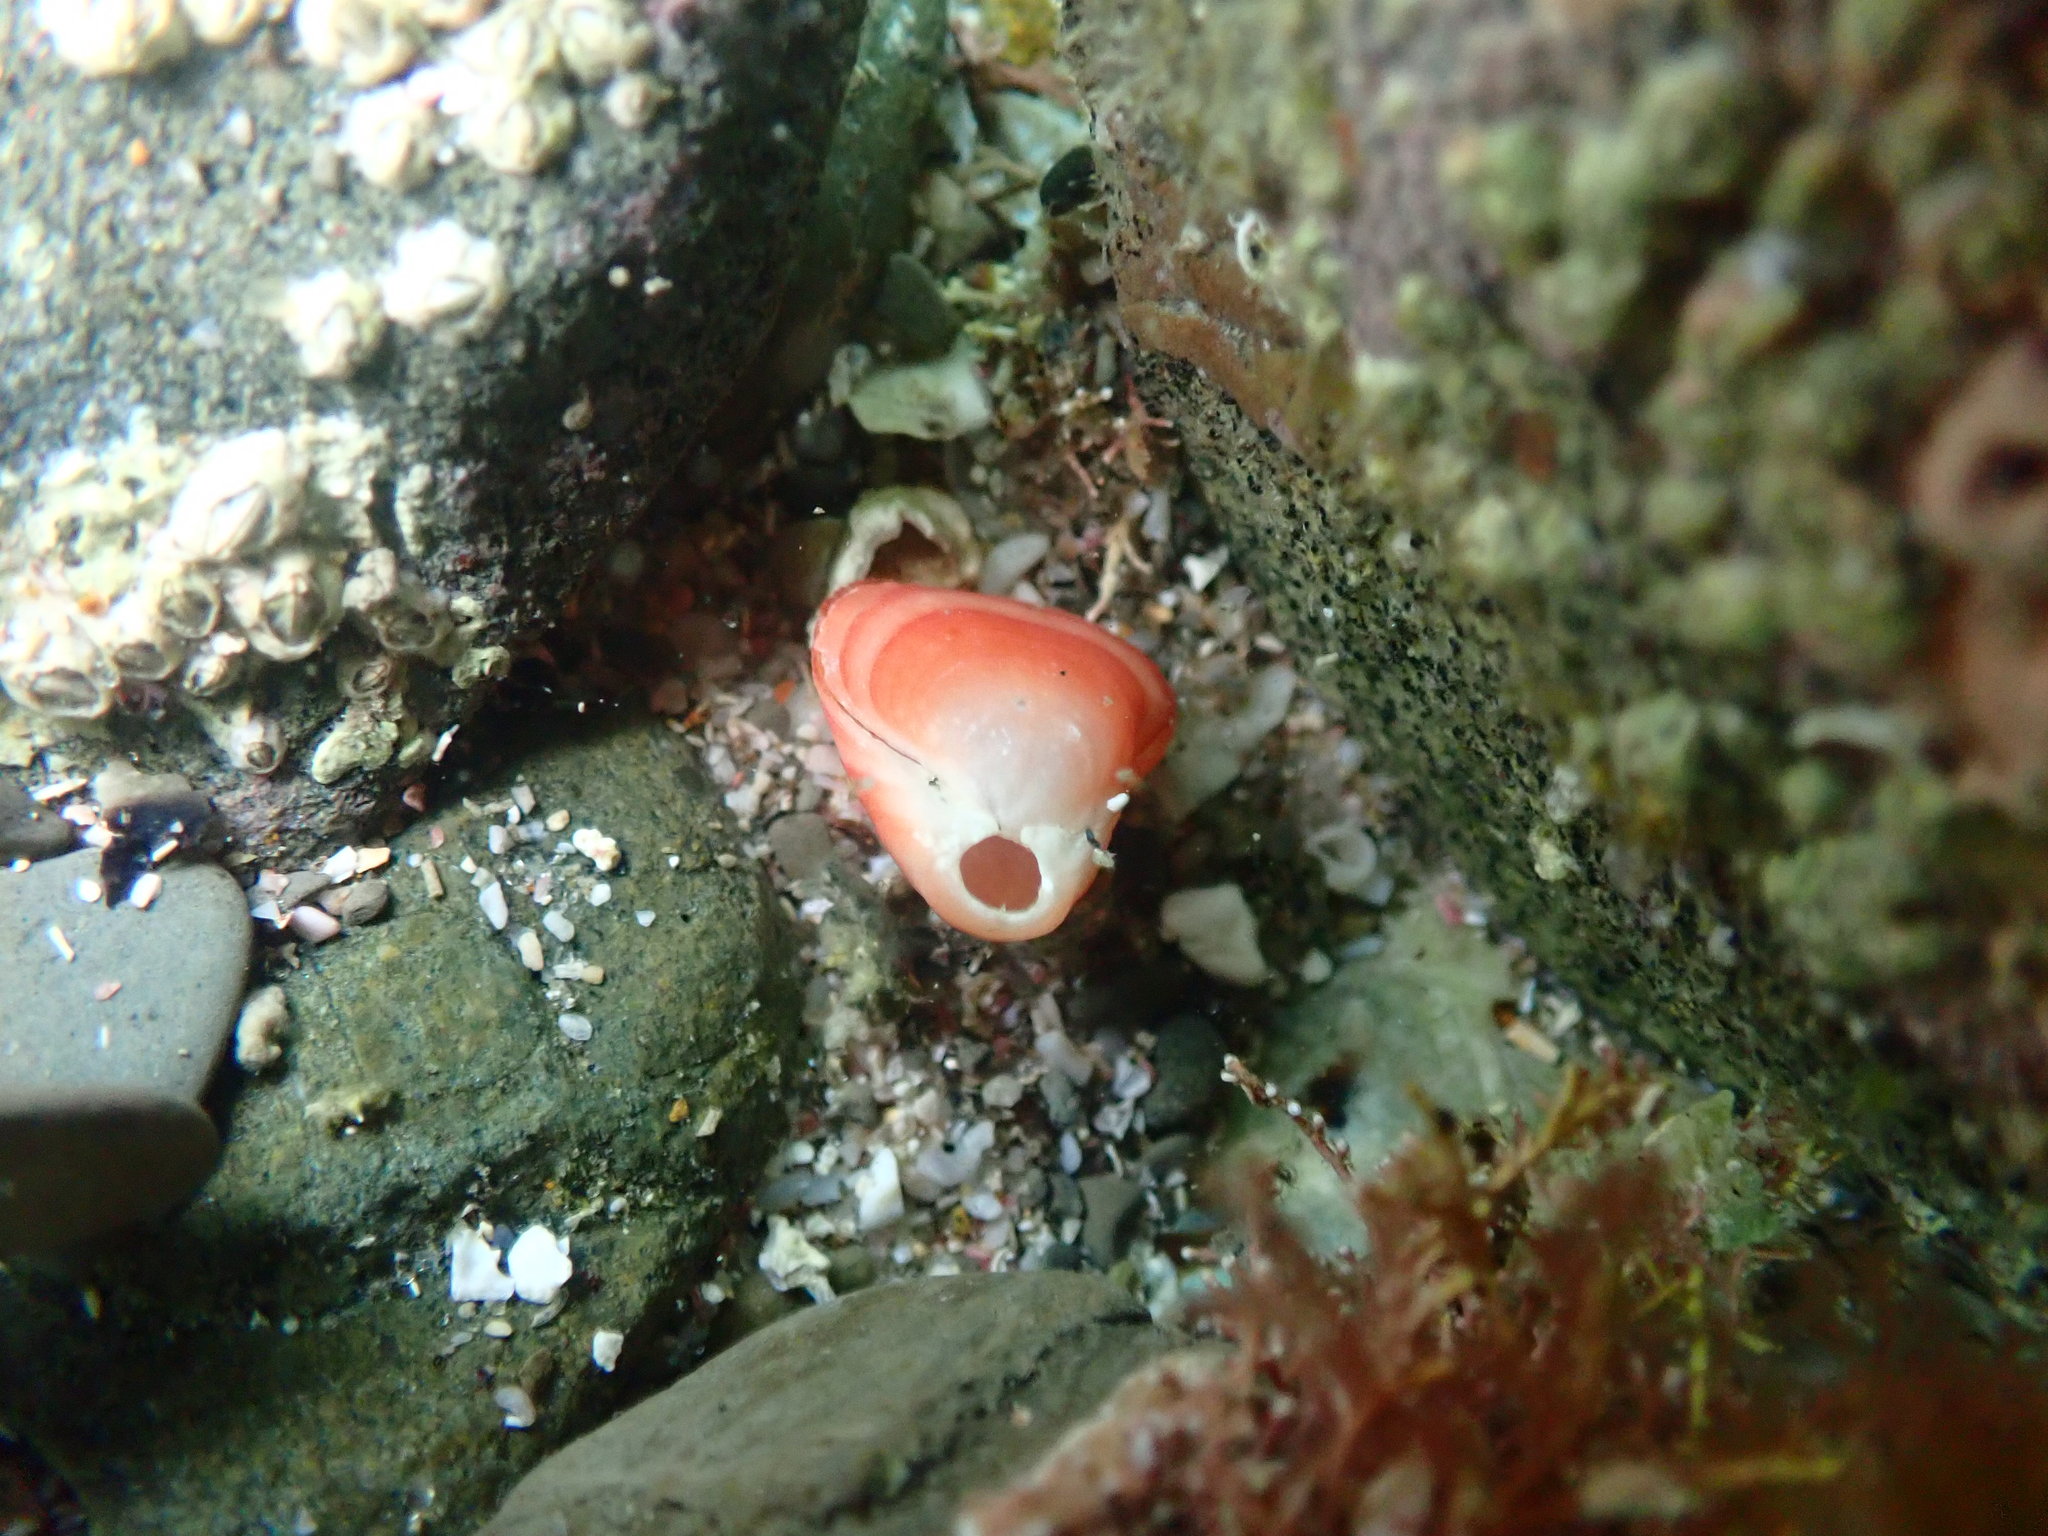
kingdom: Animalia
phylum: Brachiopoda
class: Rhynchonellata
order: Terebratulida
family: Terebratellidae
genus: Calloria
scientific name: Calloria inconspicua
